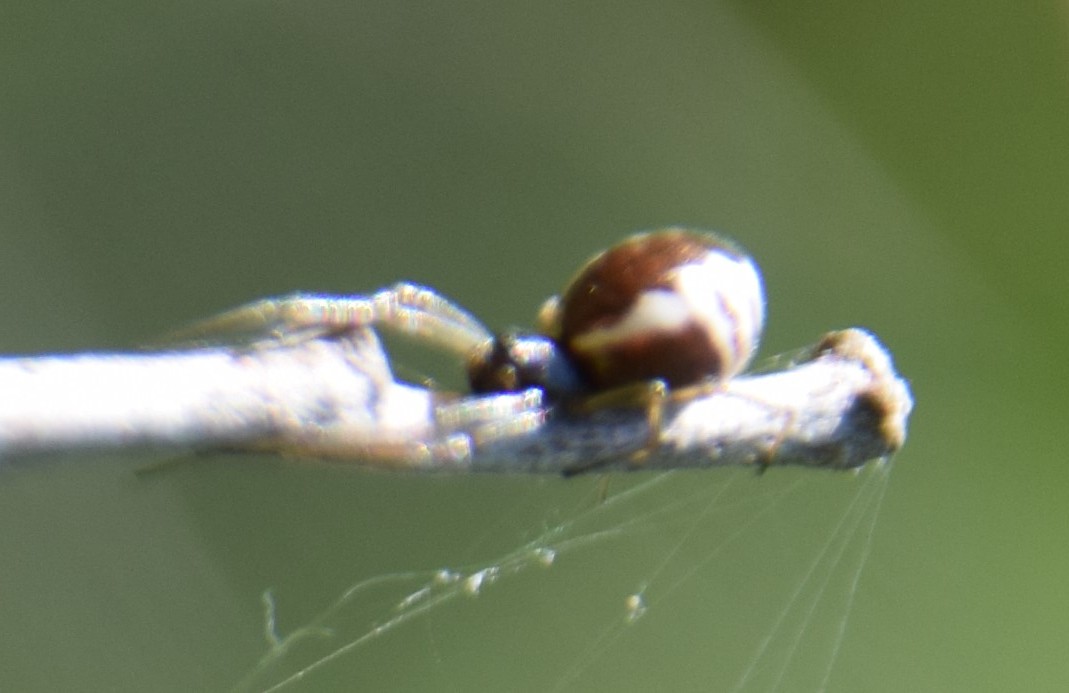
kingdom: Animalia
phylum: Arthropoda
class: Arachnida
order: Araneae
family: Linyphiidae
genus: Frontinella
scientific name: Frontinella pyramitela
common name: Bowl-and-doily spider
